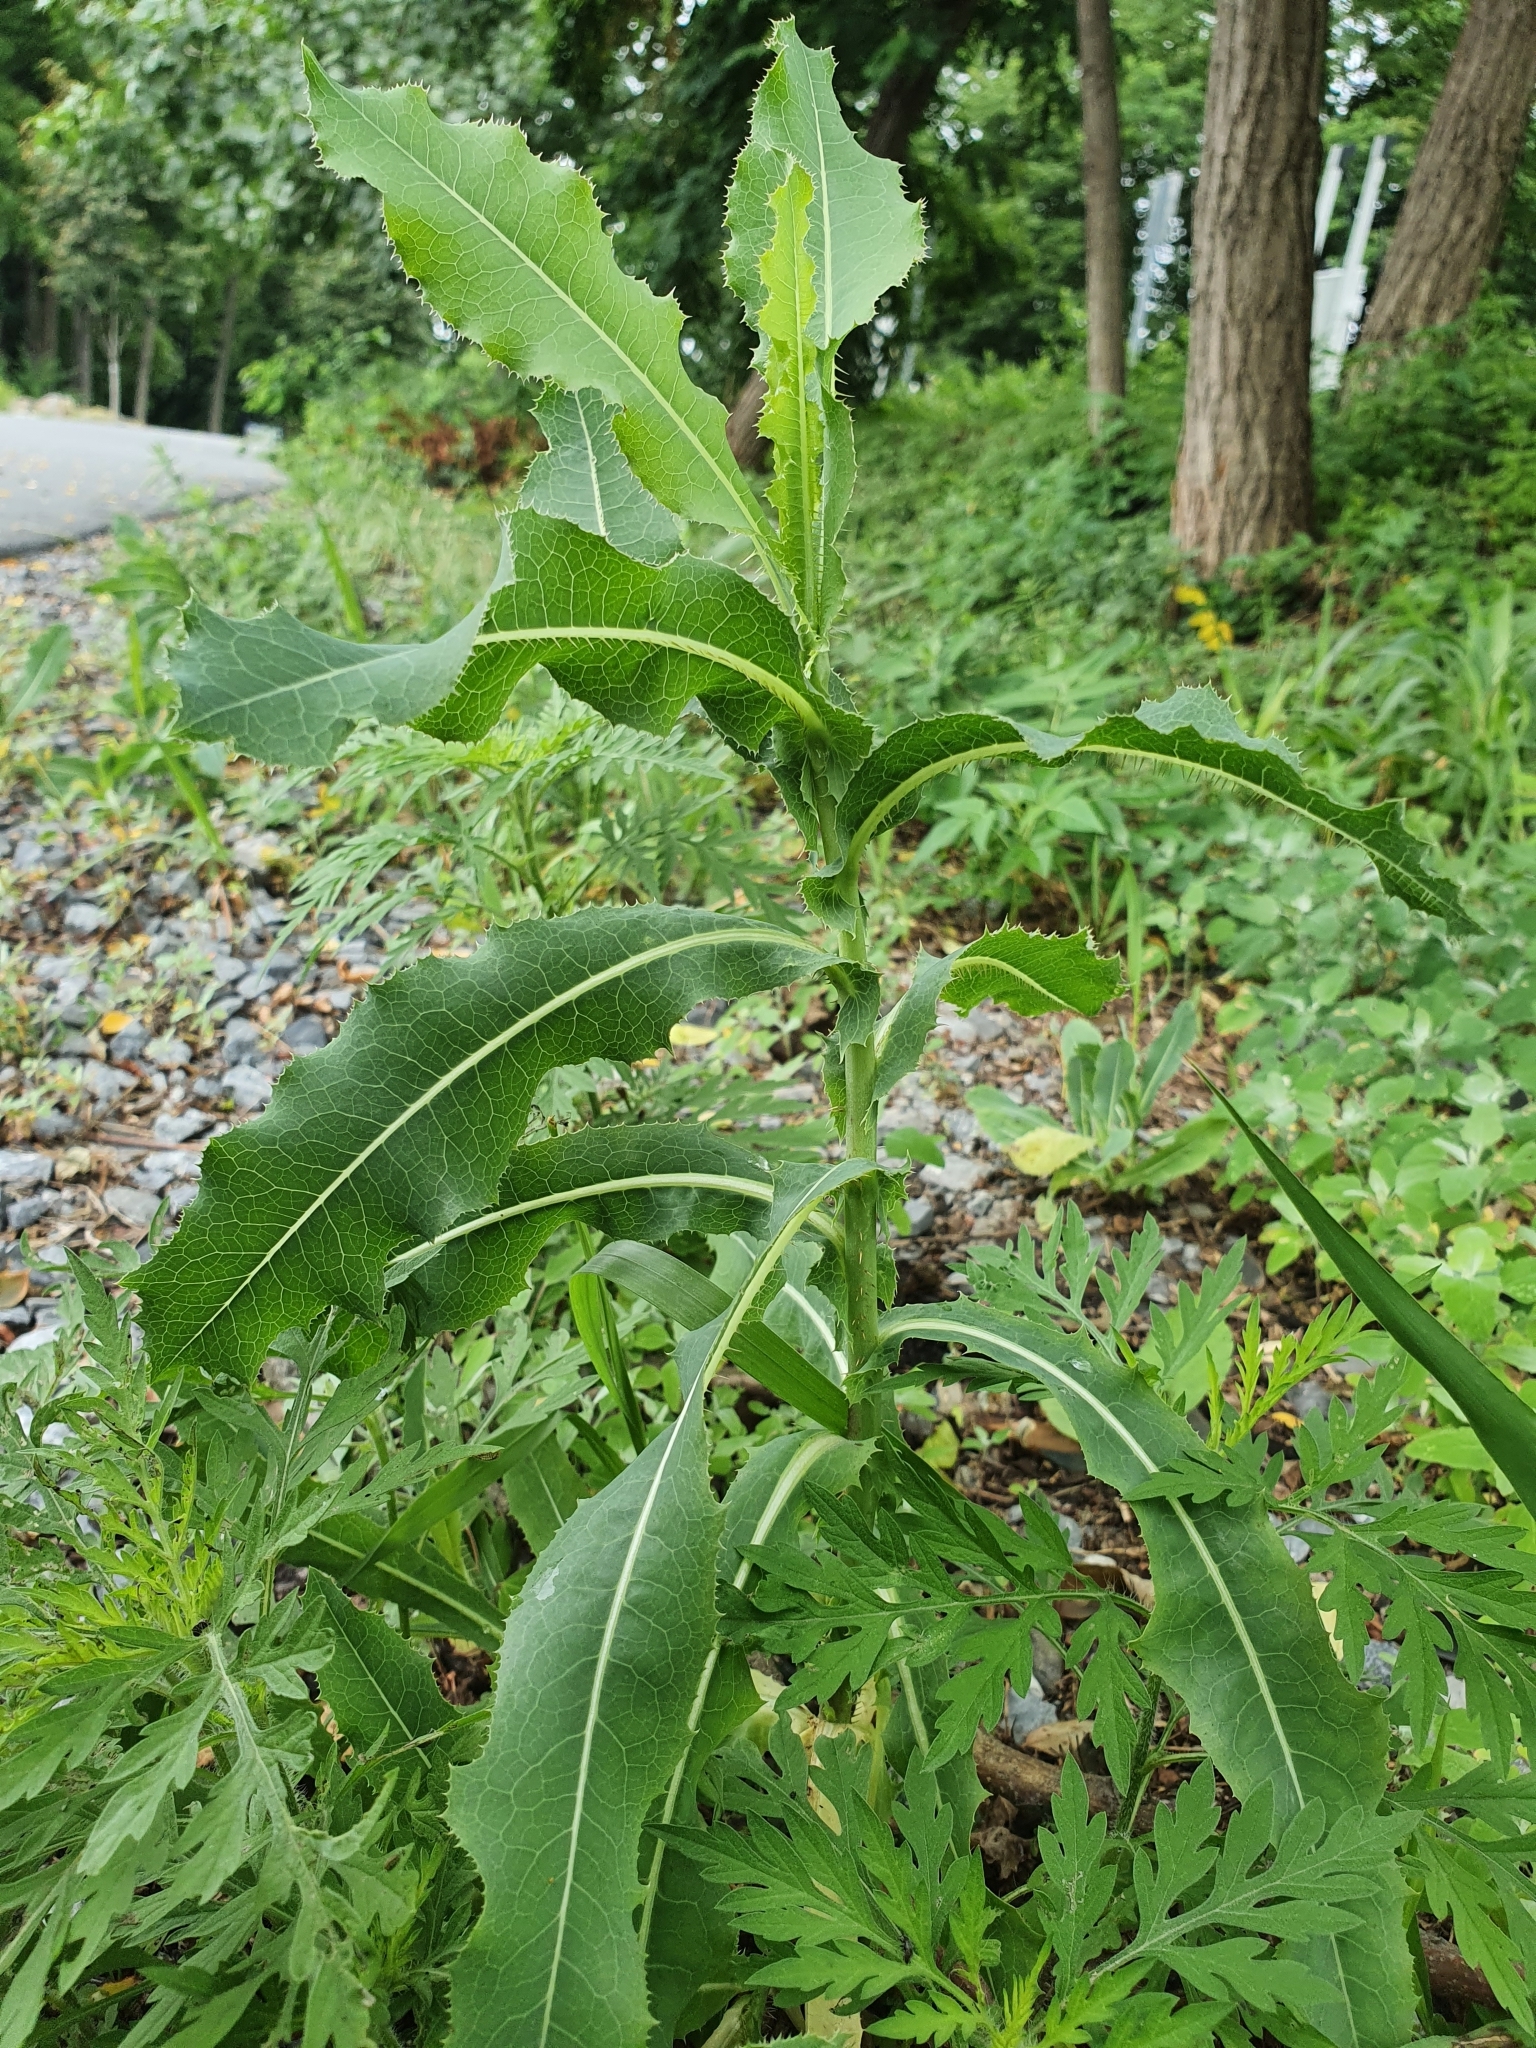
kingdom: Plantae
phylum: Tracheophyta
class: Magnoliopsida
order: Asterales
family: Asteraceae
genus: Lactuca
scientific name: Lactuca serriola
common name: Prickly lettuce
